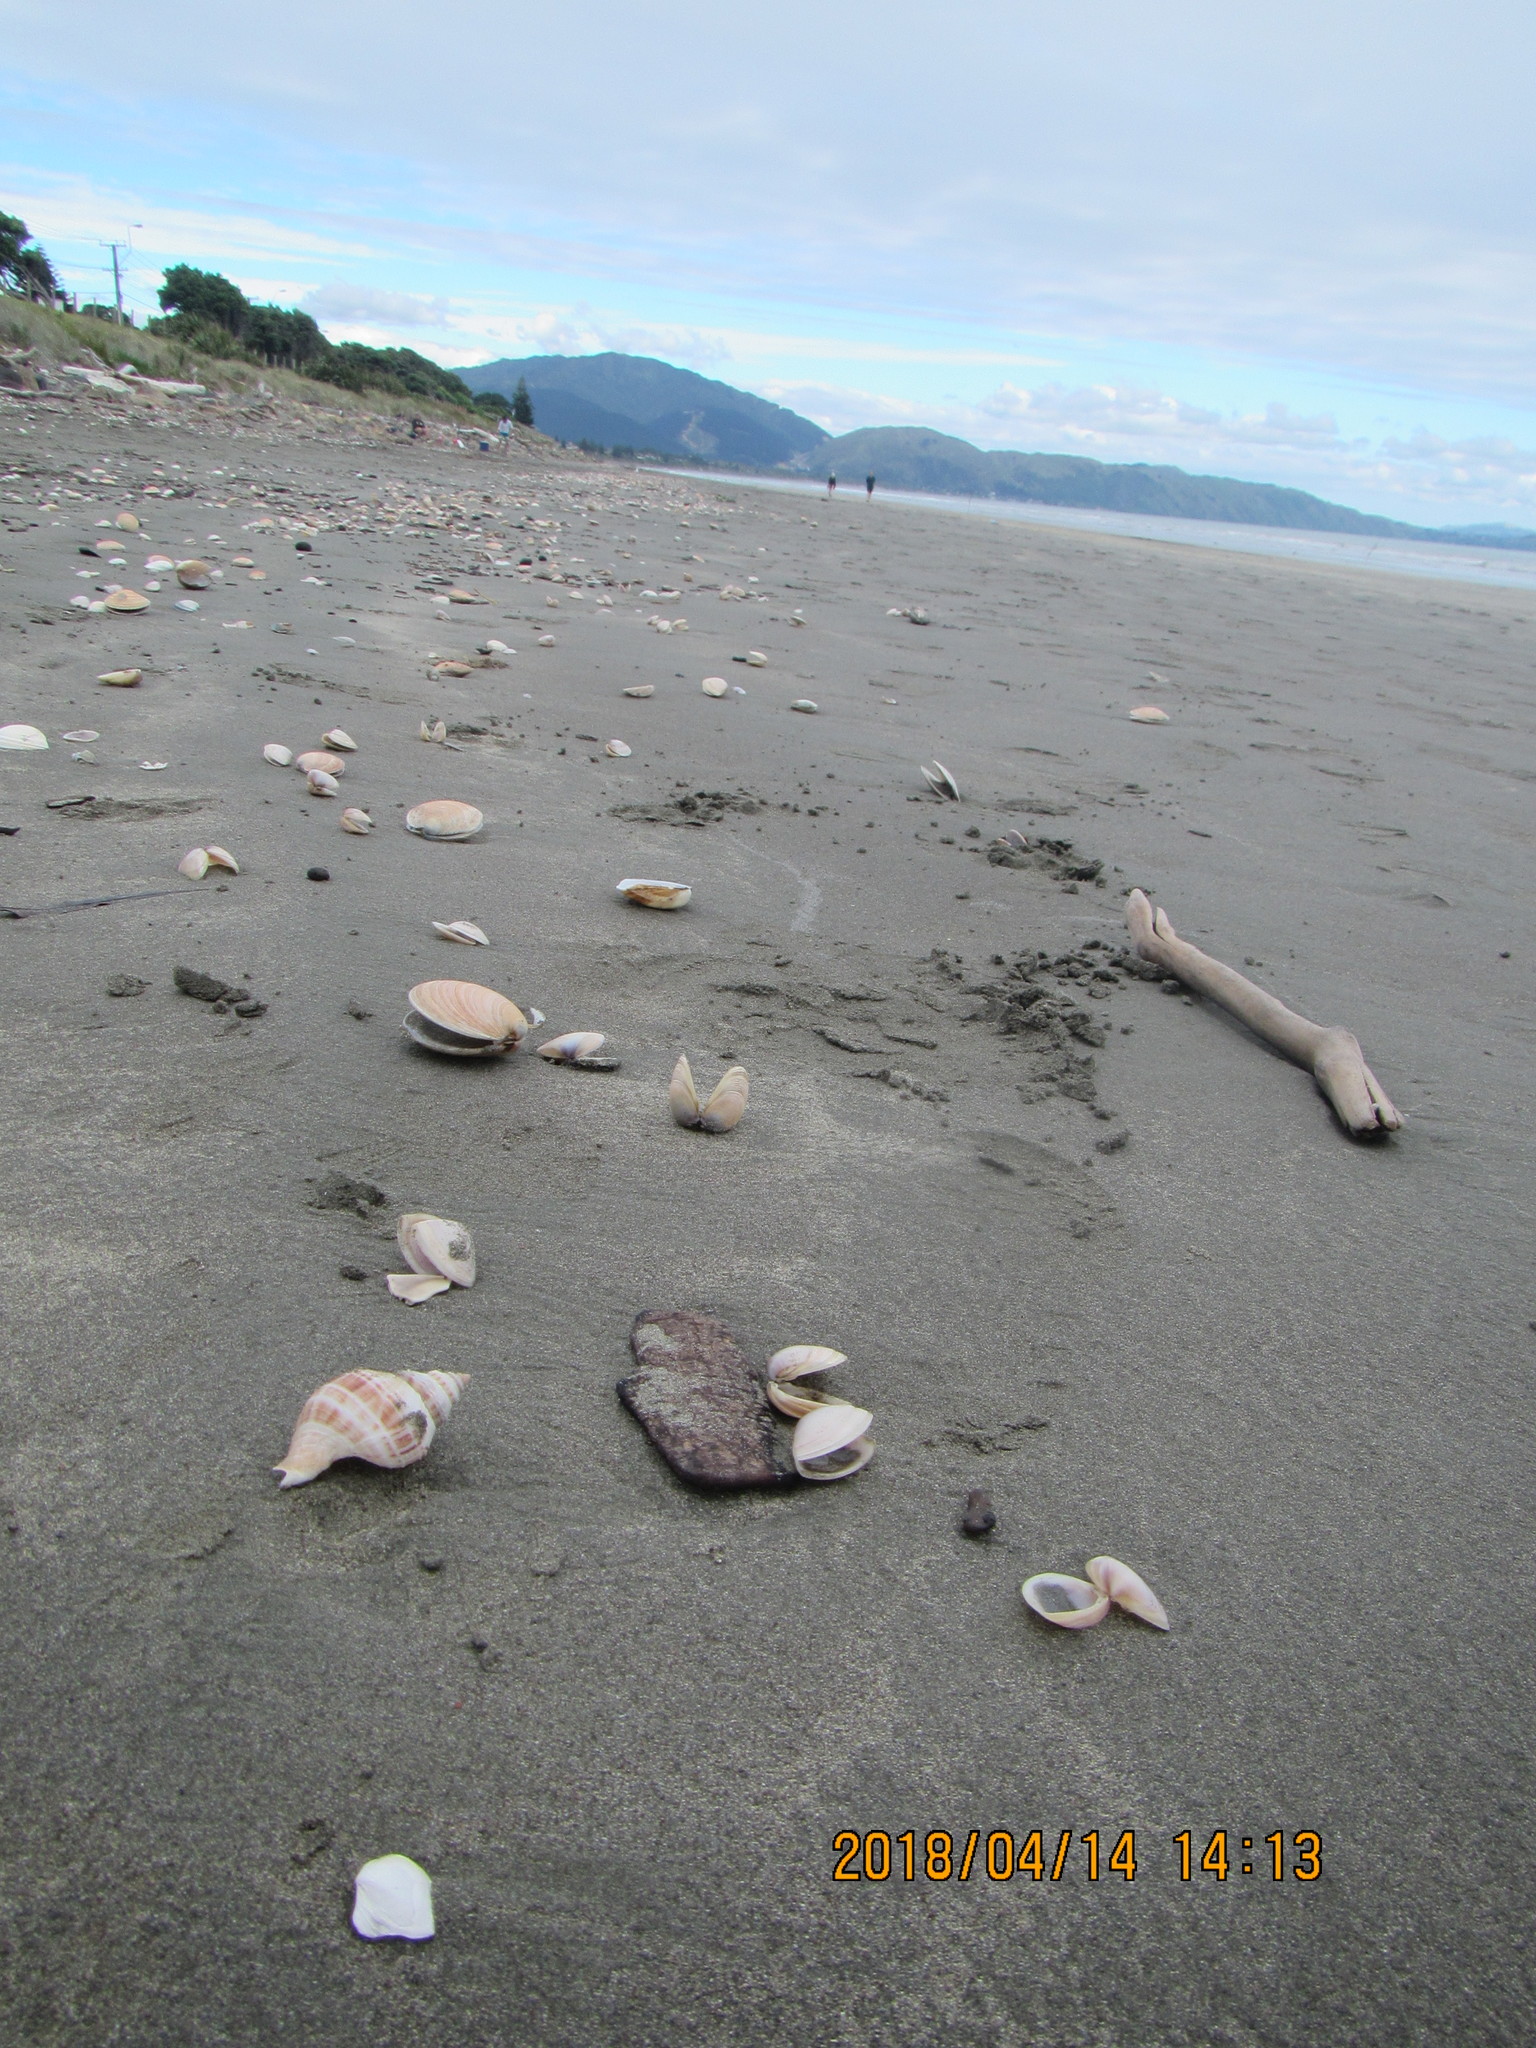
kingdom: Animalia
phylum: Mollusca
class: Gastropoda
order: Littorinimorpha
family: Struthiolariidae
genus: Struthiolaria
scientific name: Struthiolaria papulosa
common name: Large ostrich foot
